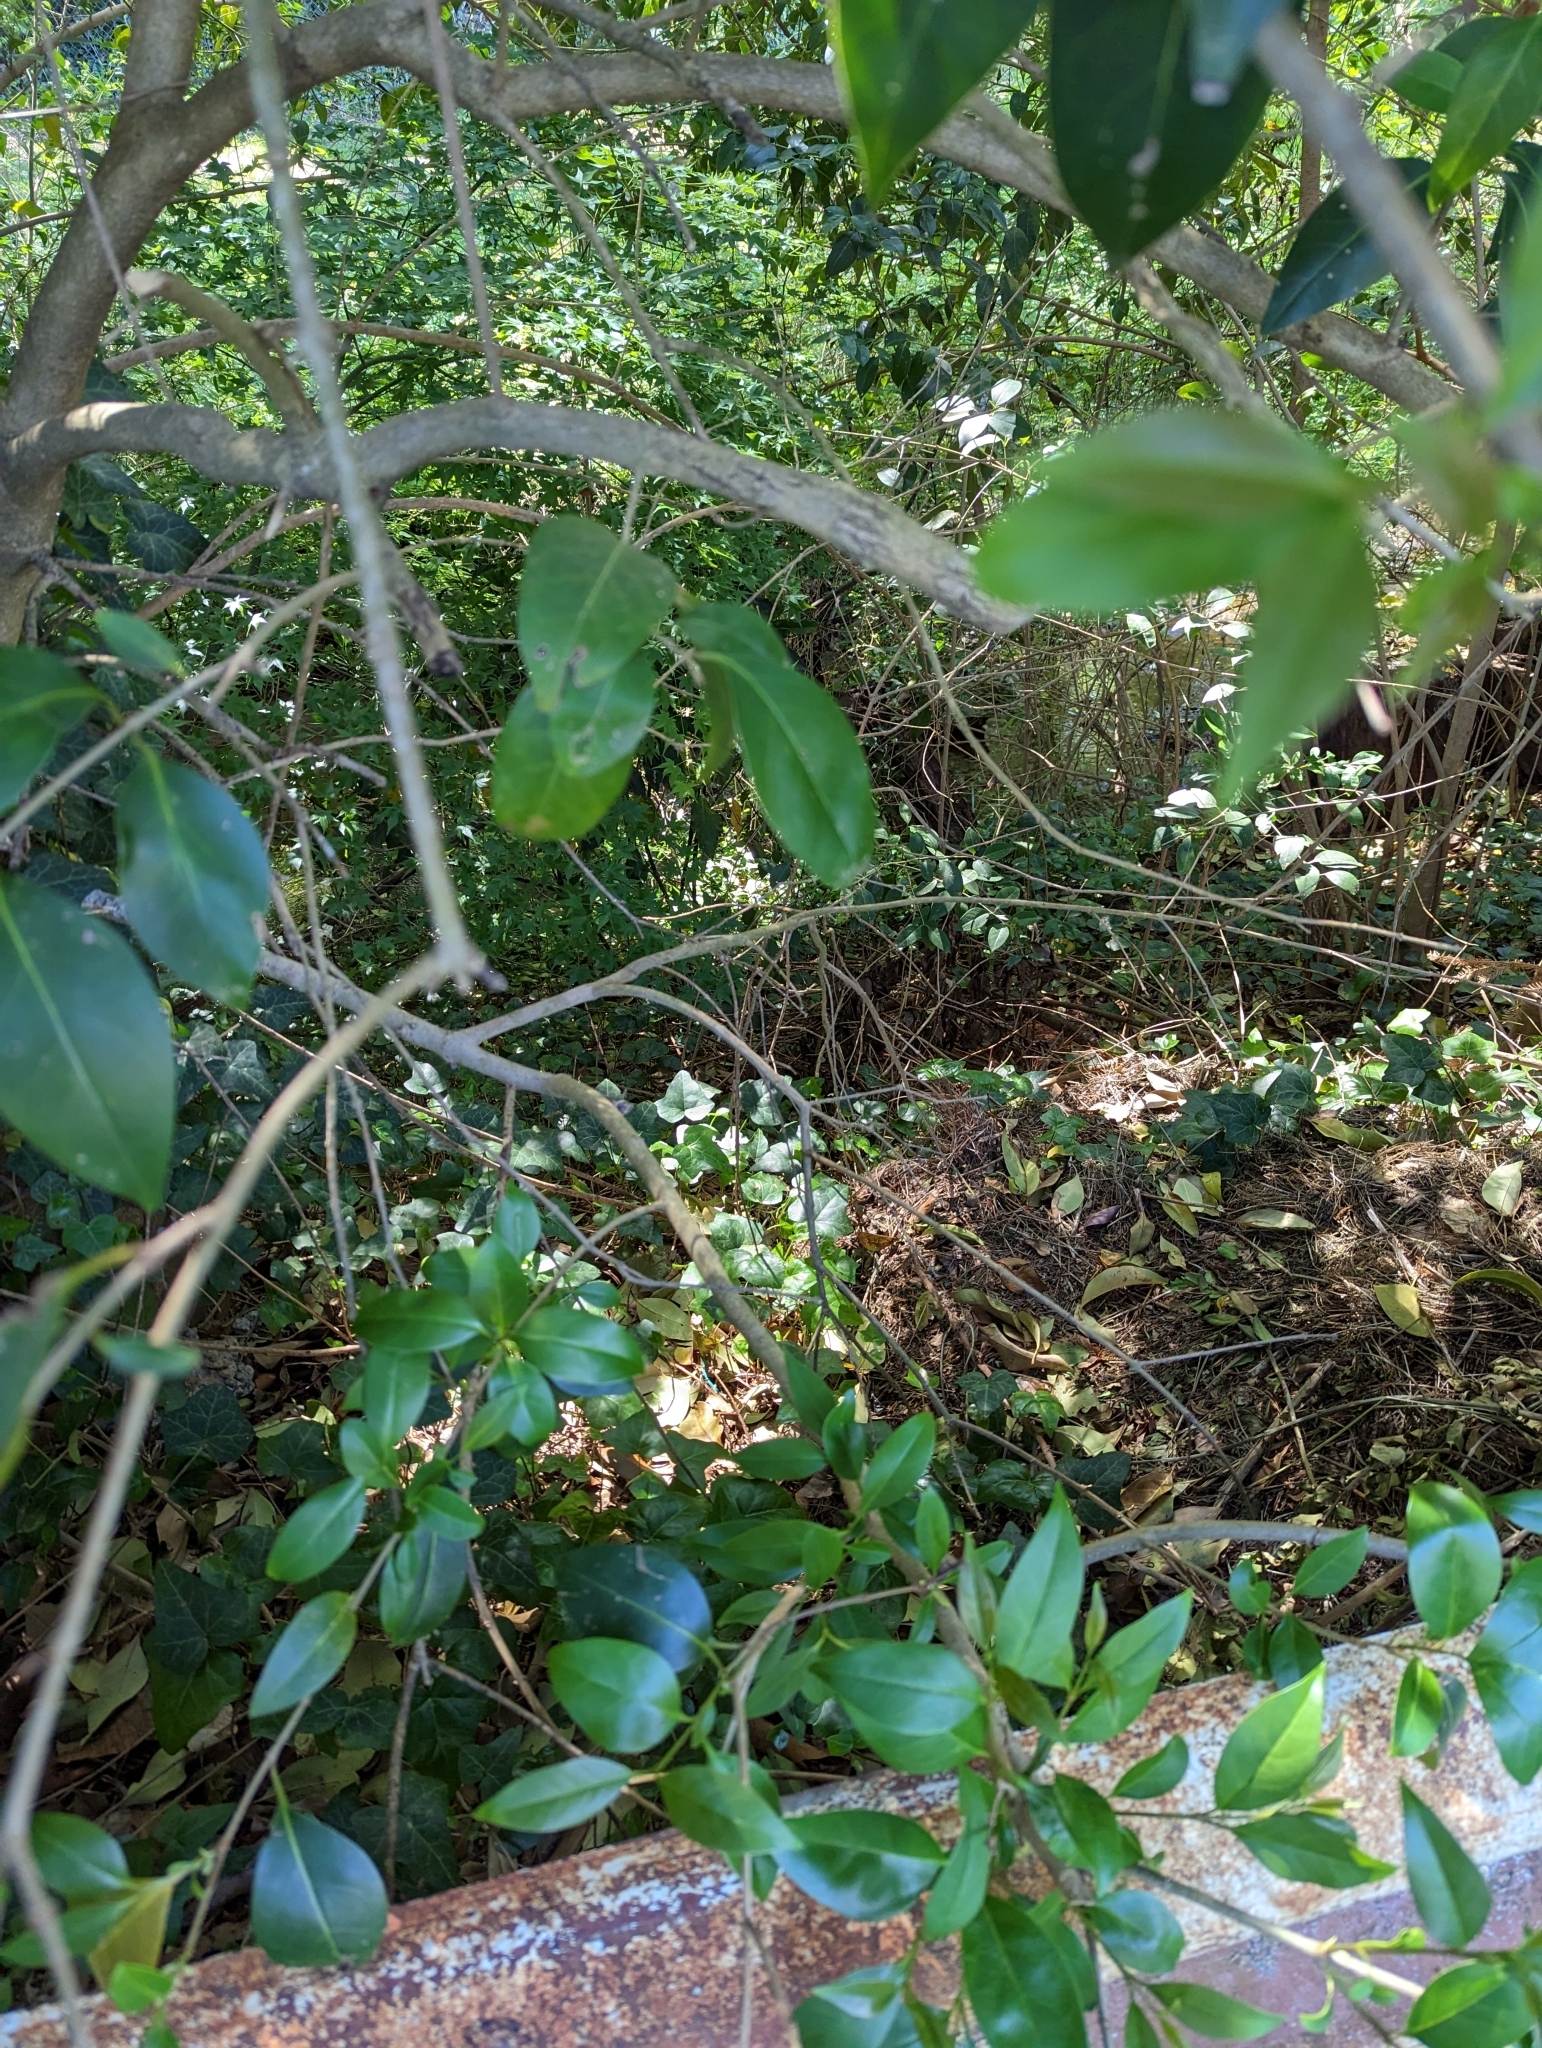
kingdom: Plantae
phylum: Tracheophyta
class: Magnoliopsida
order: Lamiales
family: Oleaceae
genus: Ligustrum
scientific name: Ligustrum lucidum
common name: Glossy privet
